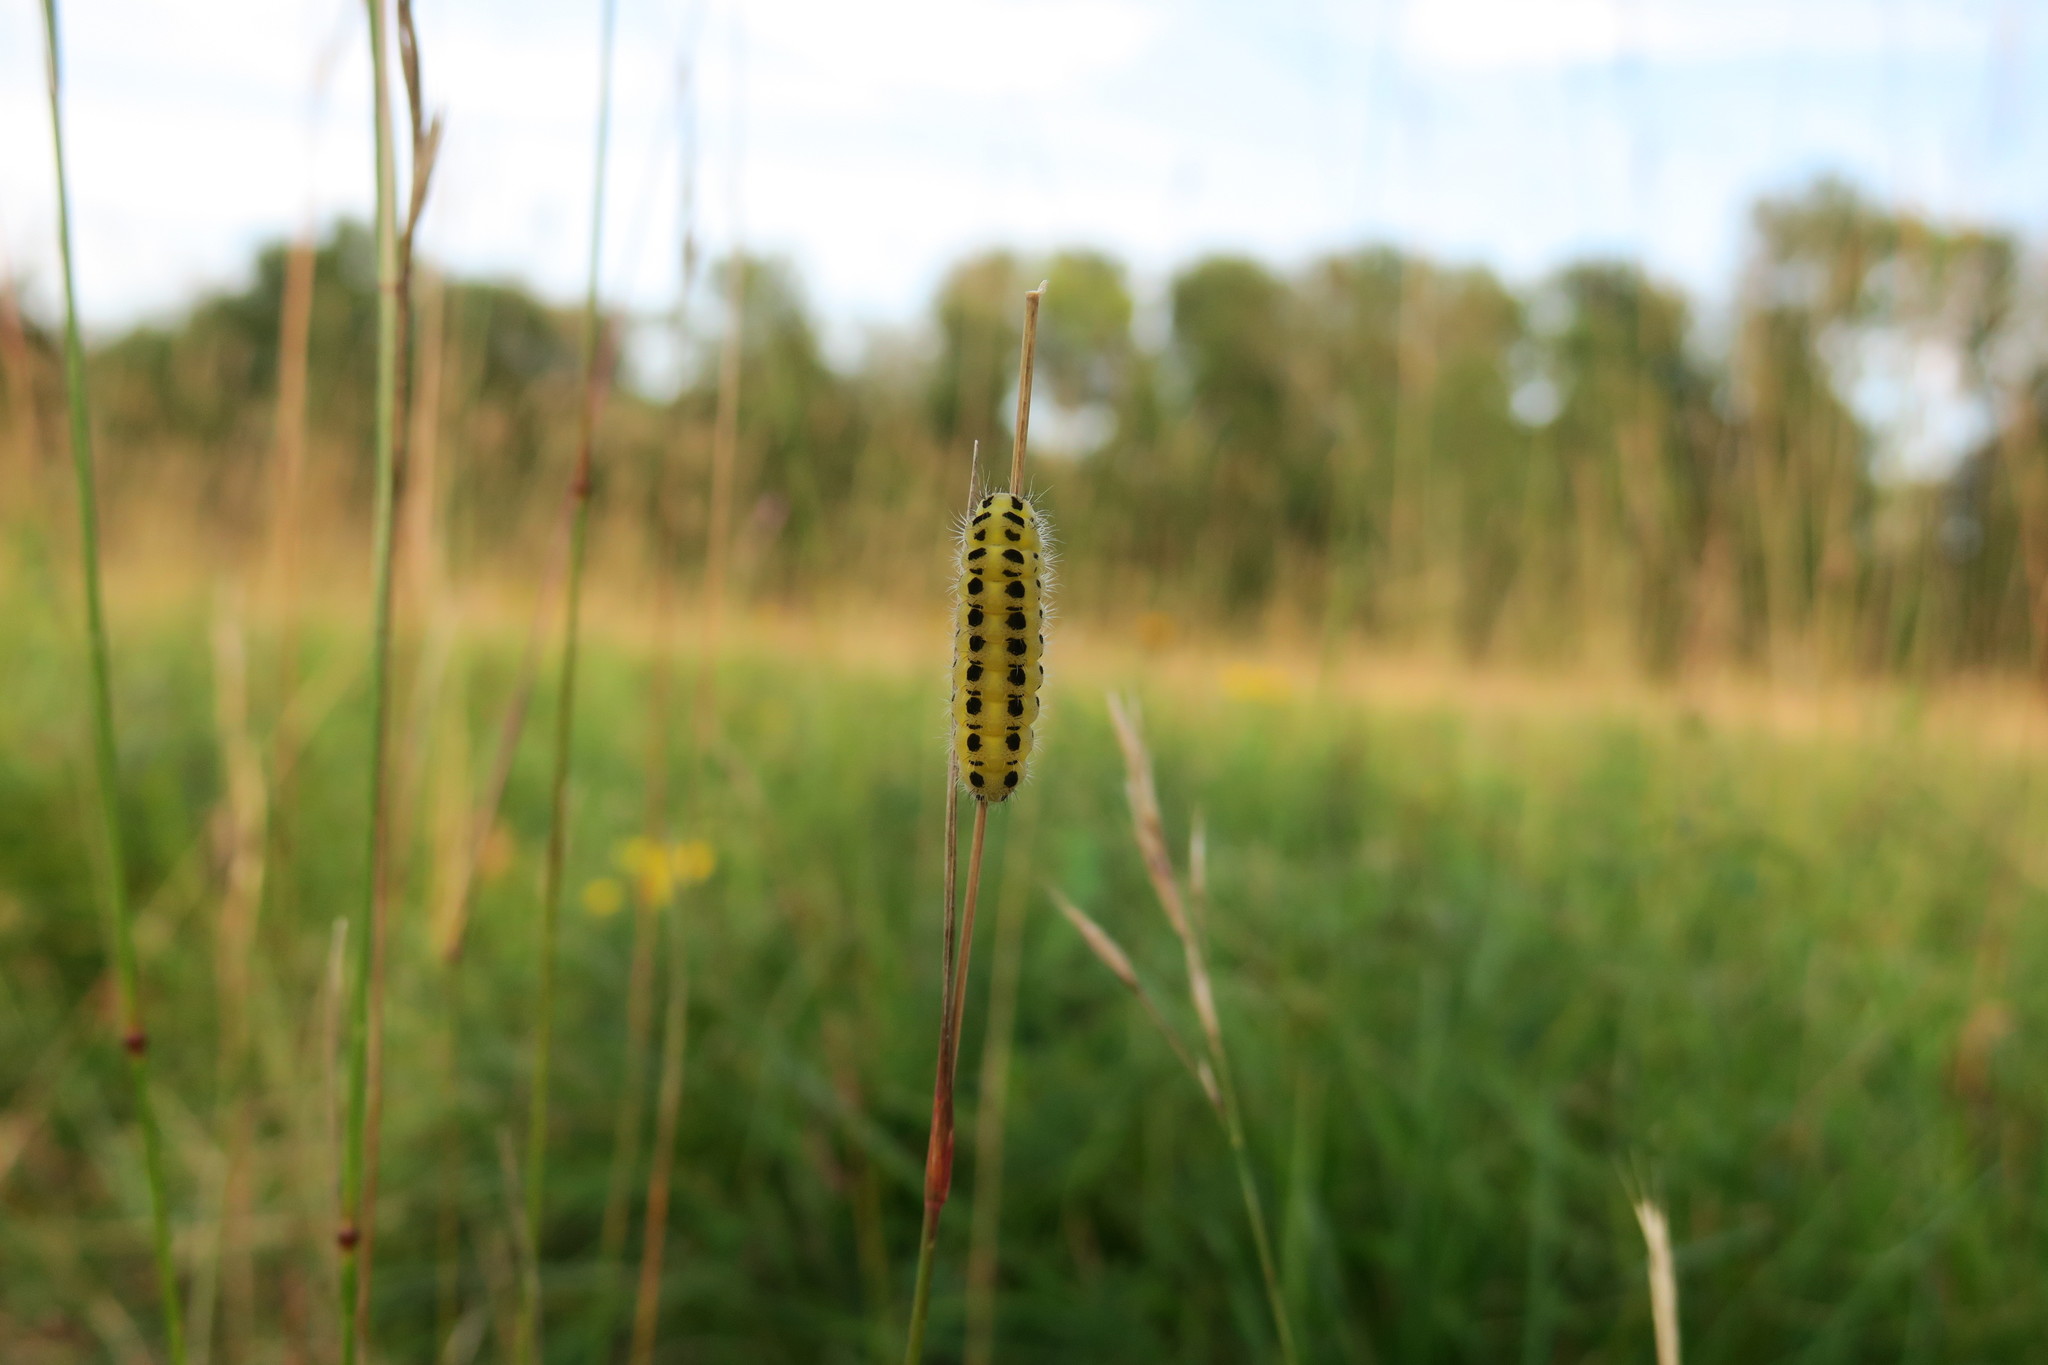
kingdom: Animalia
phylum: Arthropoda
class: Insecta
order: Lepidoptera
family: Zygaenidae
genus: Zygaena
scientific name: Zygaena filipendulae
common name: Six-spot burnet
